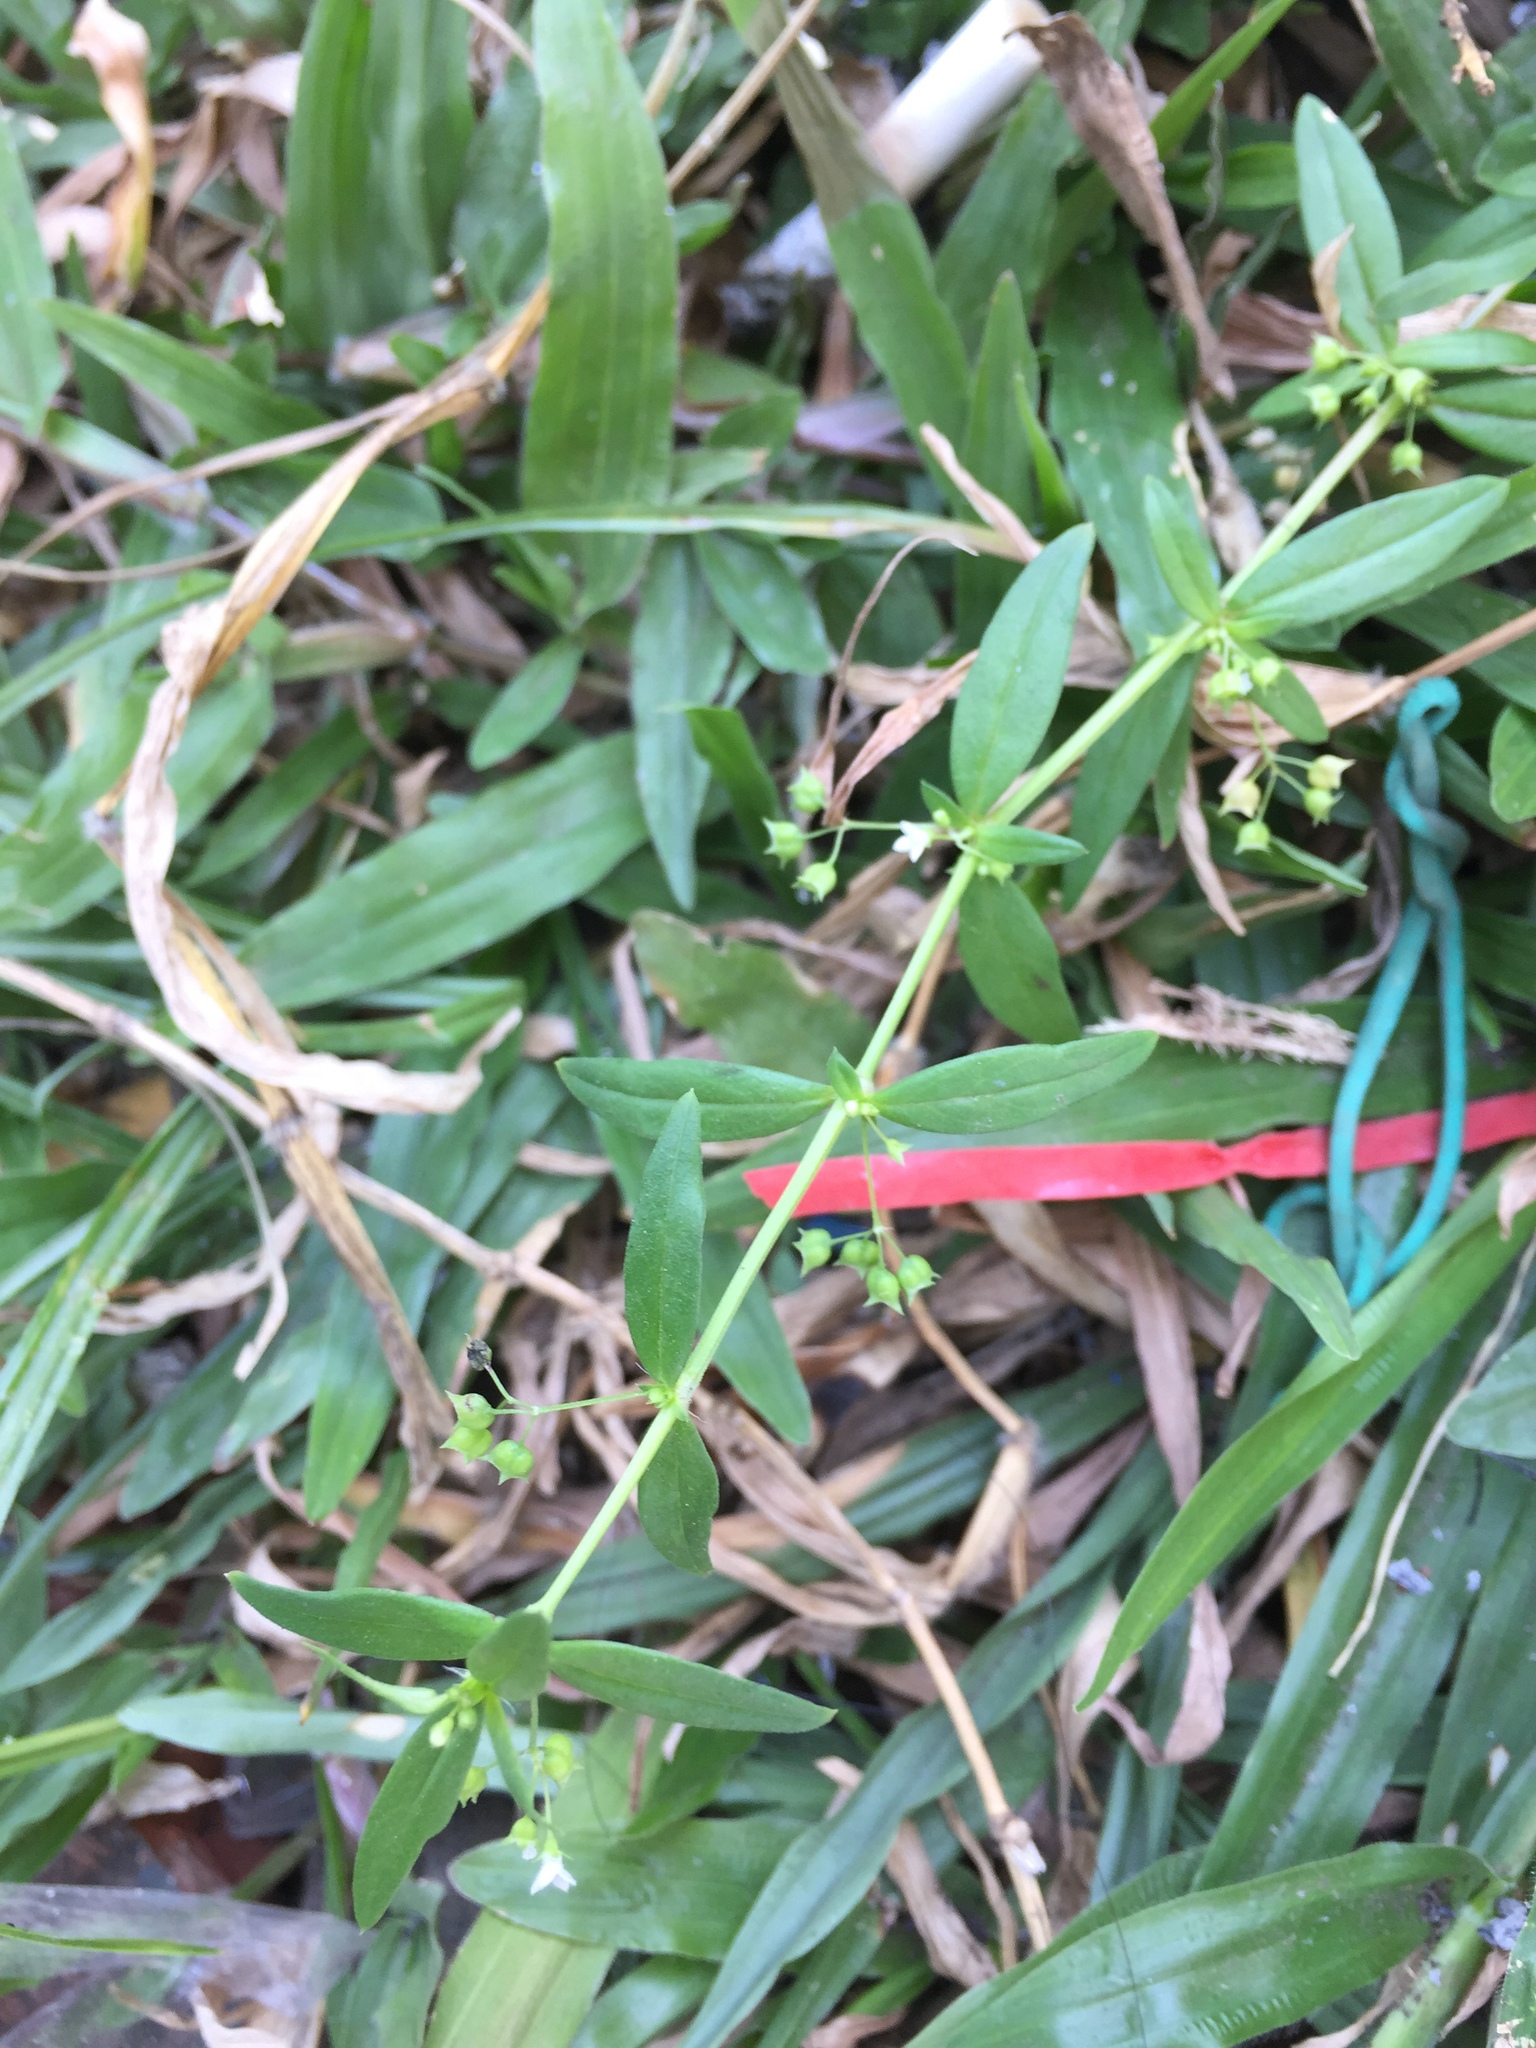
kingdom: Plantae
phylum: Tracheophyta
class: Magnoliopsida
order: Gentianales
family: Rubiaceae
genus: Oldenlandia
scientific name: Oldenlandia corymbosa
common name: Flat-top mille graines
